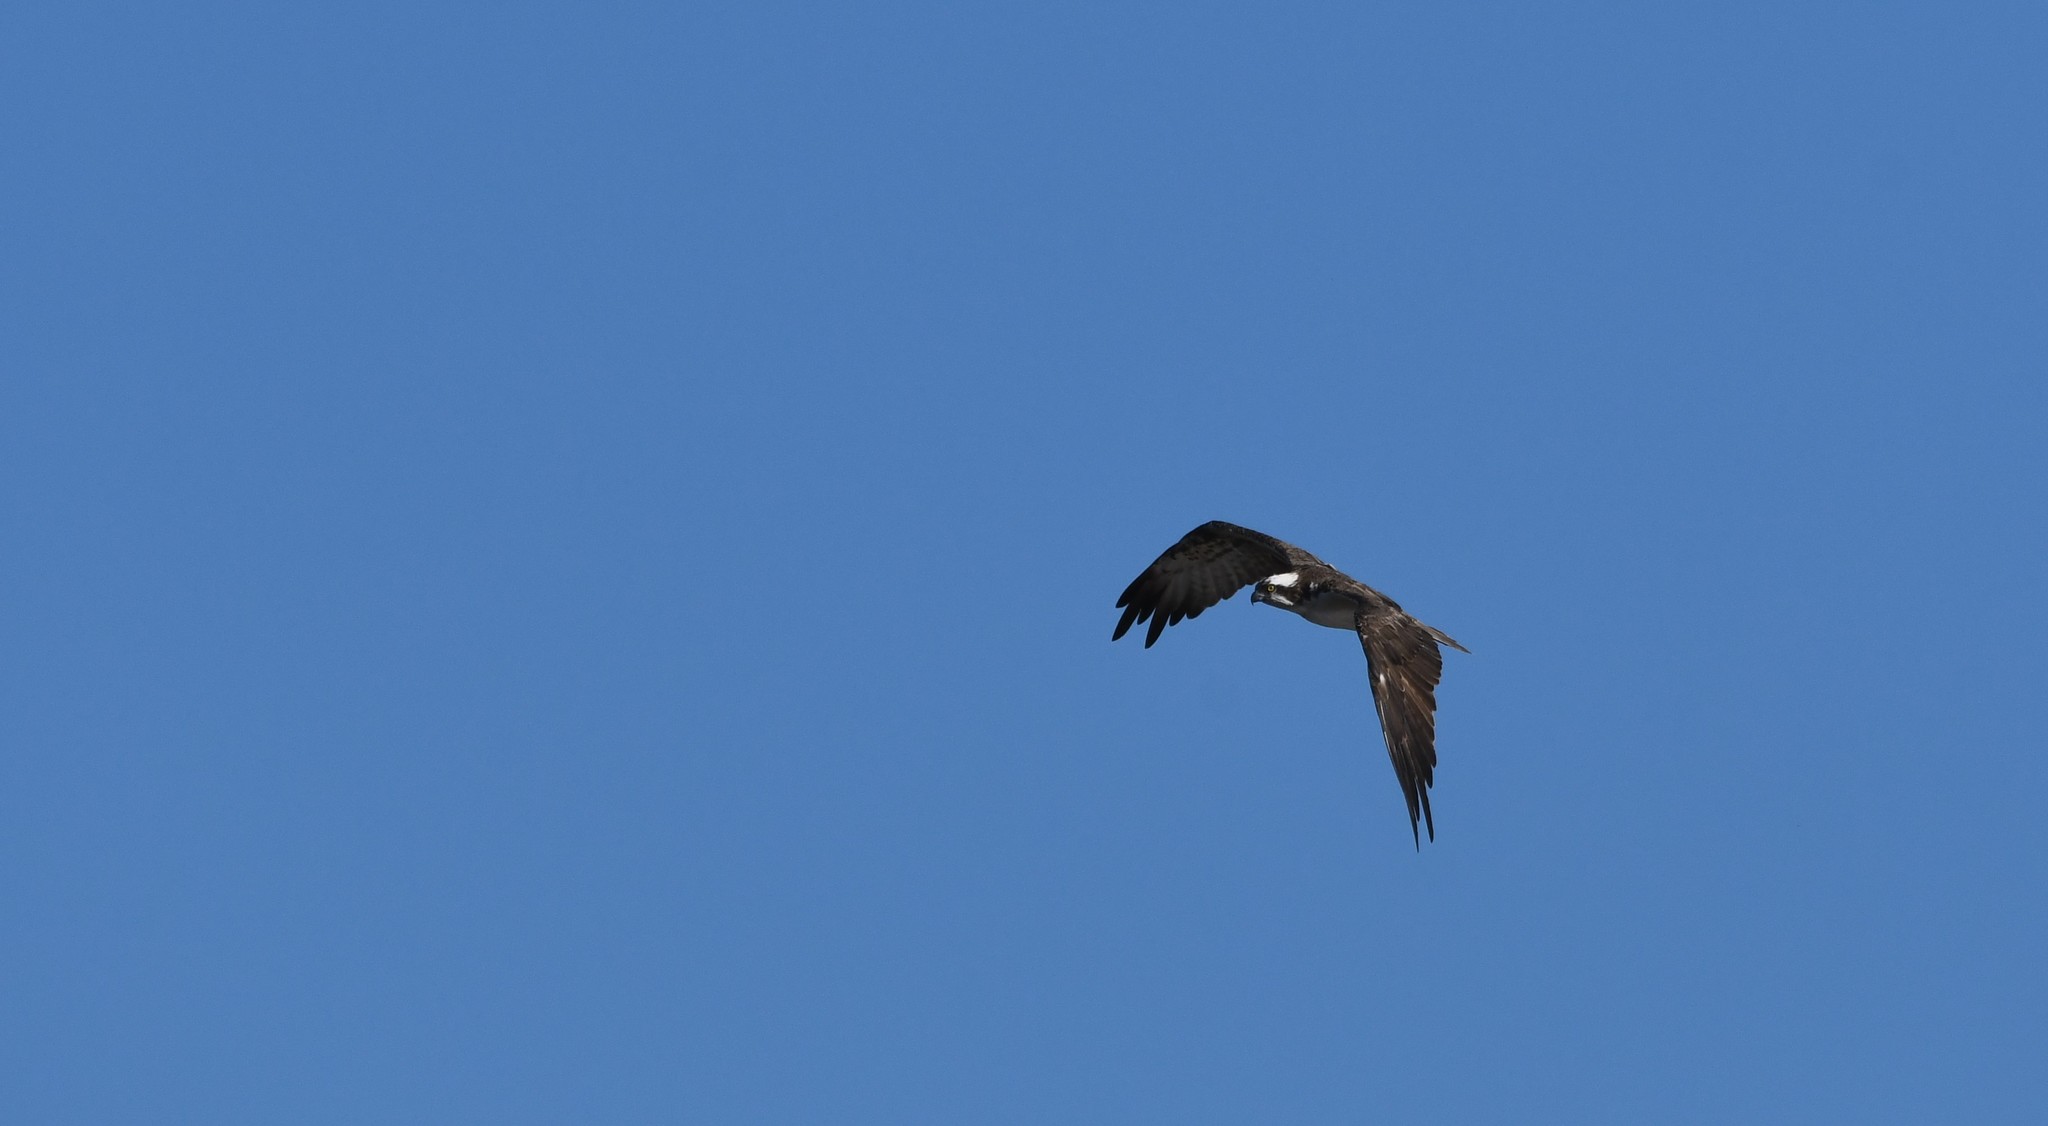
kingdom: Animalia
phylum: Chordata
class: Aves
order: Accipitriformes
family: Pandionidae
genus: Pandion
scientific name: Pandion haliaetus
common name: Osprey
